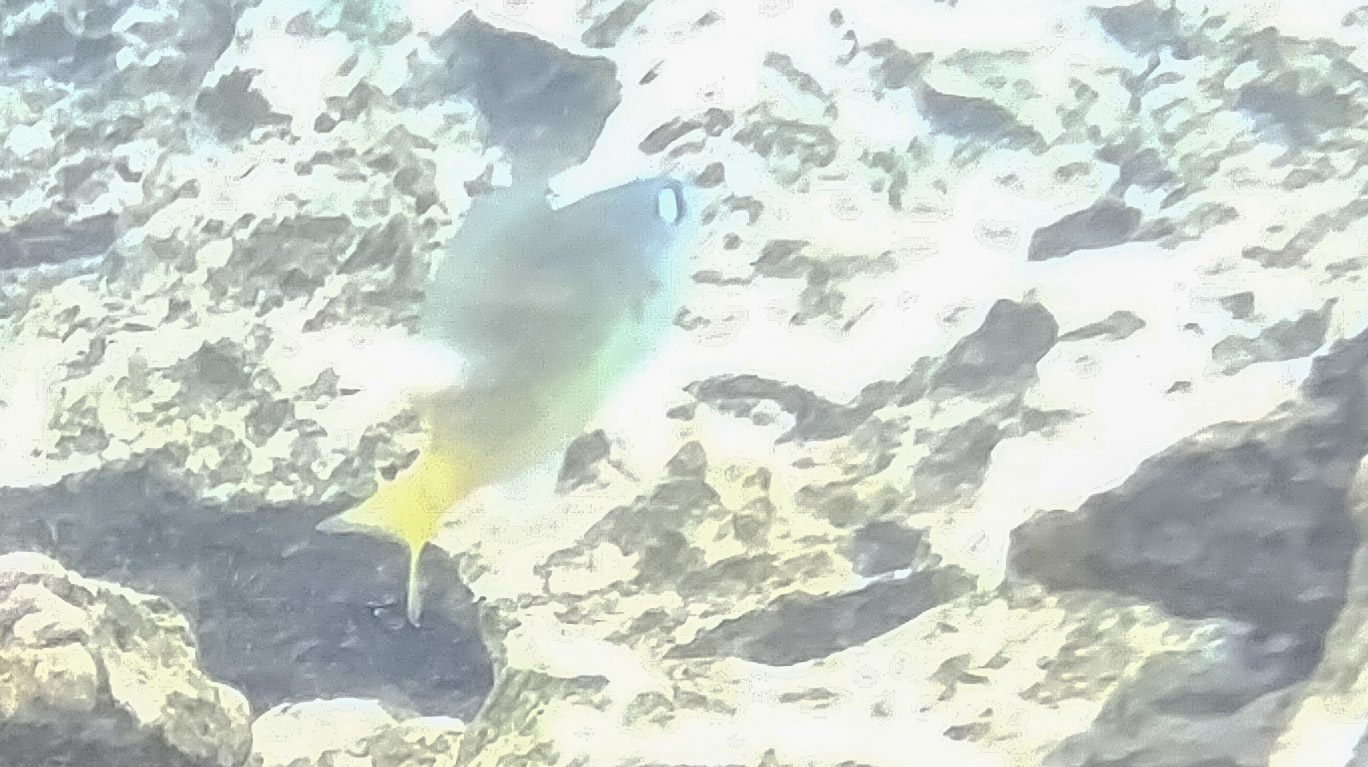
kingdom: Animalia
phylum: Chordata
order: Perciformes
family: Pomacentridae
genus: Plectroglyphidodon
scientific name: Plectroglyphidodon imparipennis
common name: Brighteye damsel
